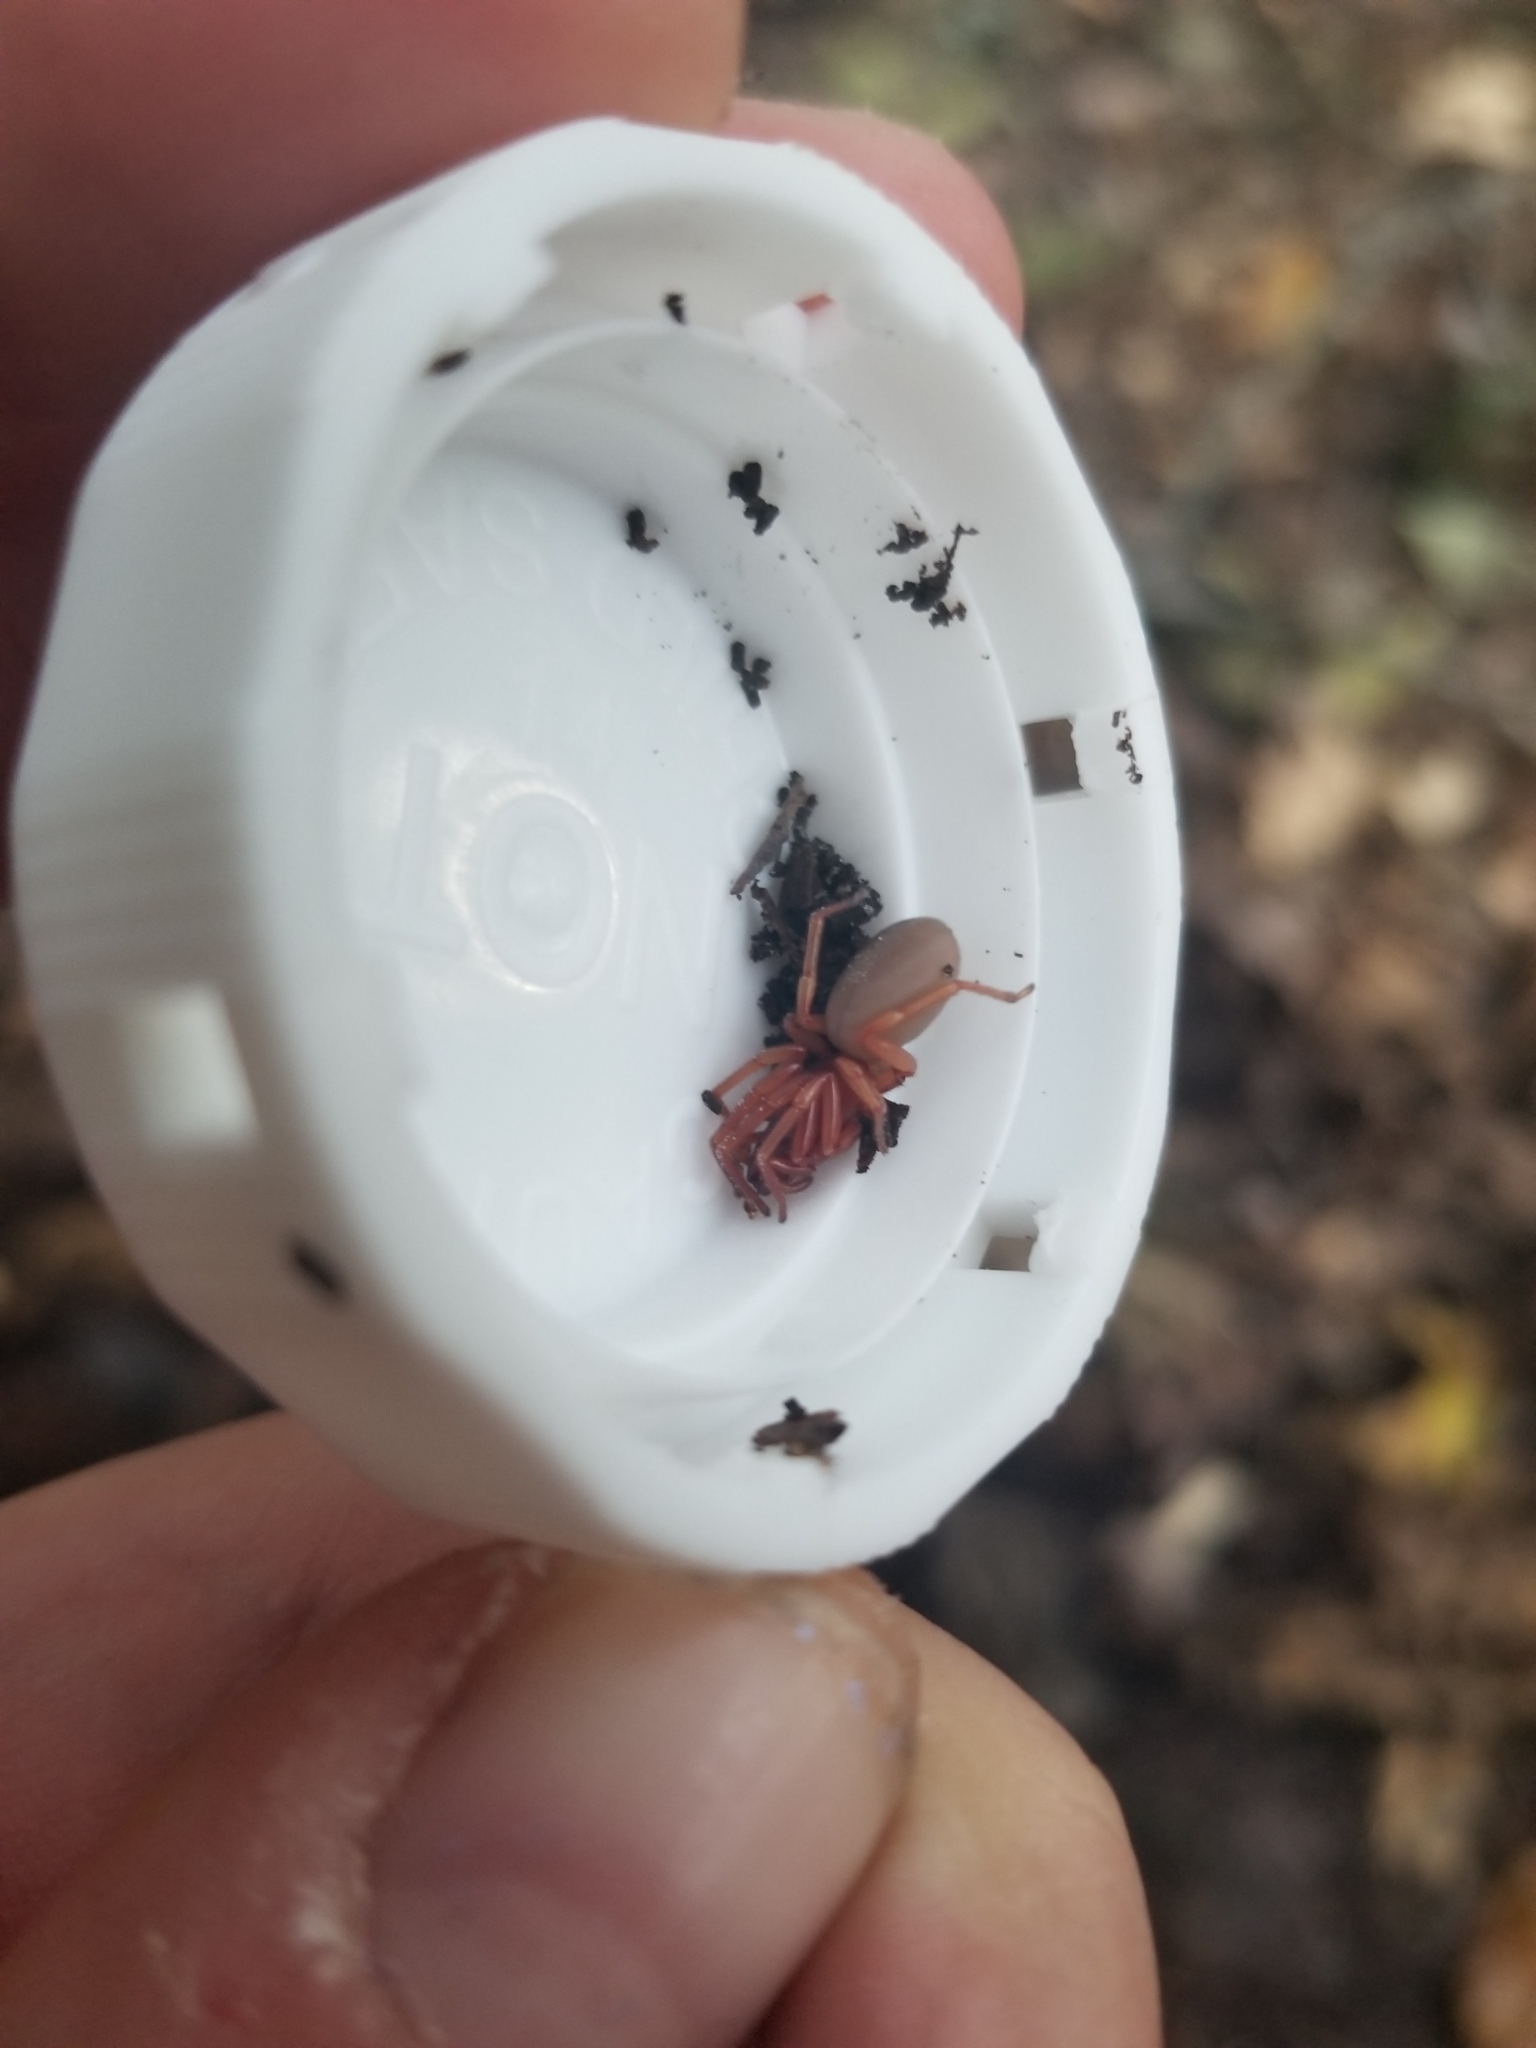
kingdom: Animalia
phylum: Arthropoda
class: Arachnida
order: Araneae
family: Dysderidae
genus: Dysdera
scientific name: Dysdera crocata
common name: Woodlouse spider
